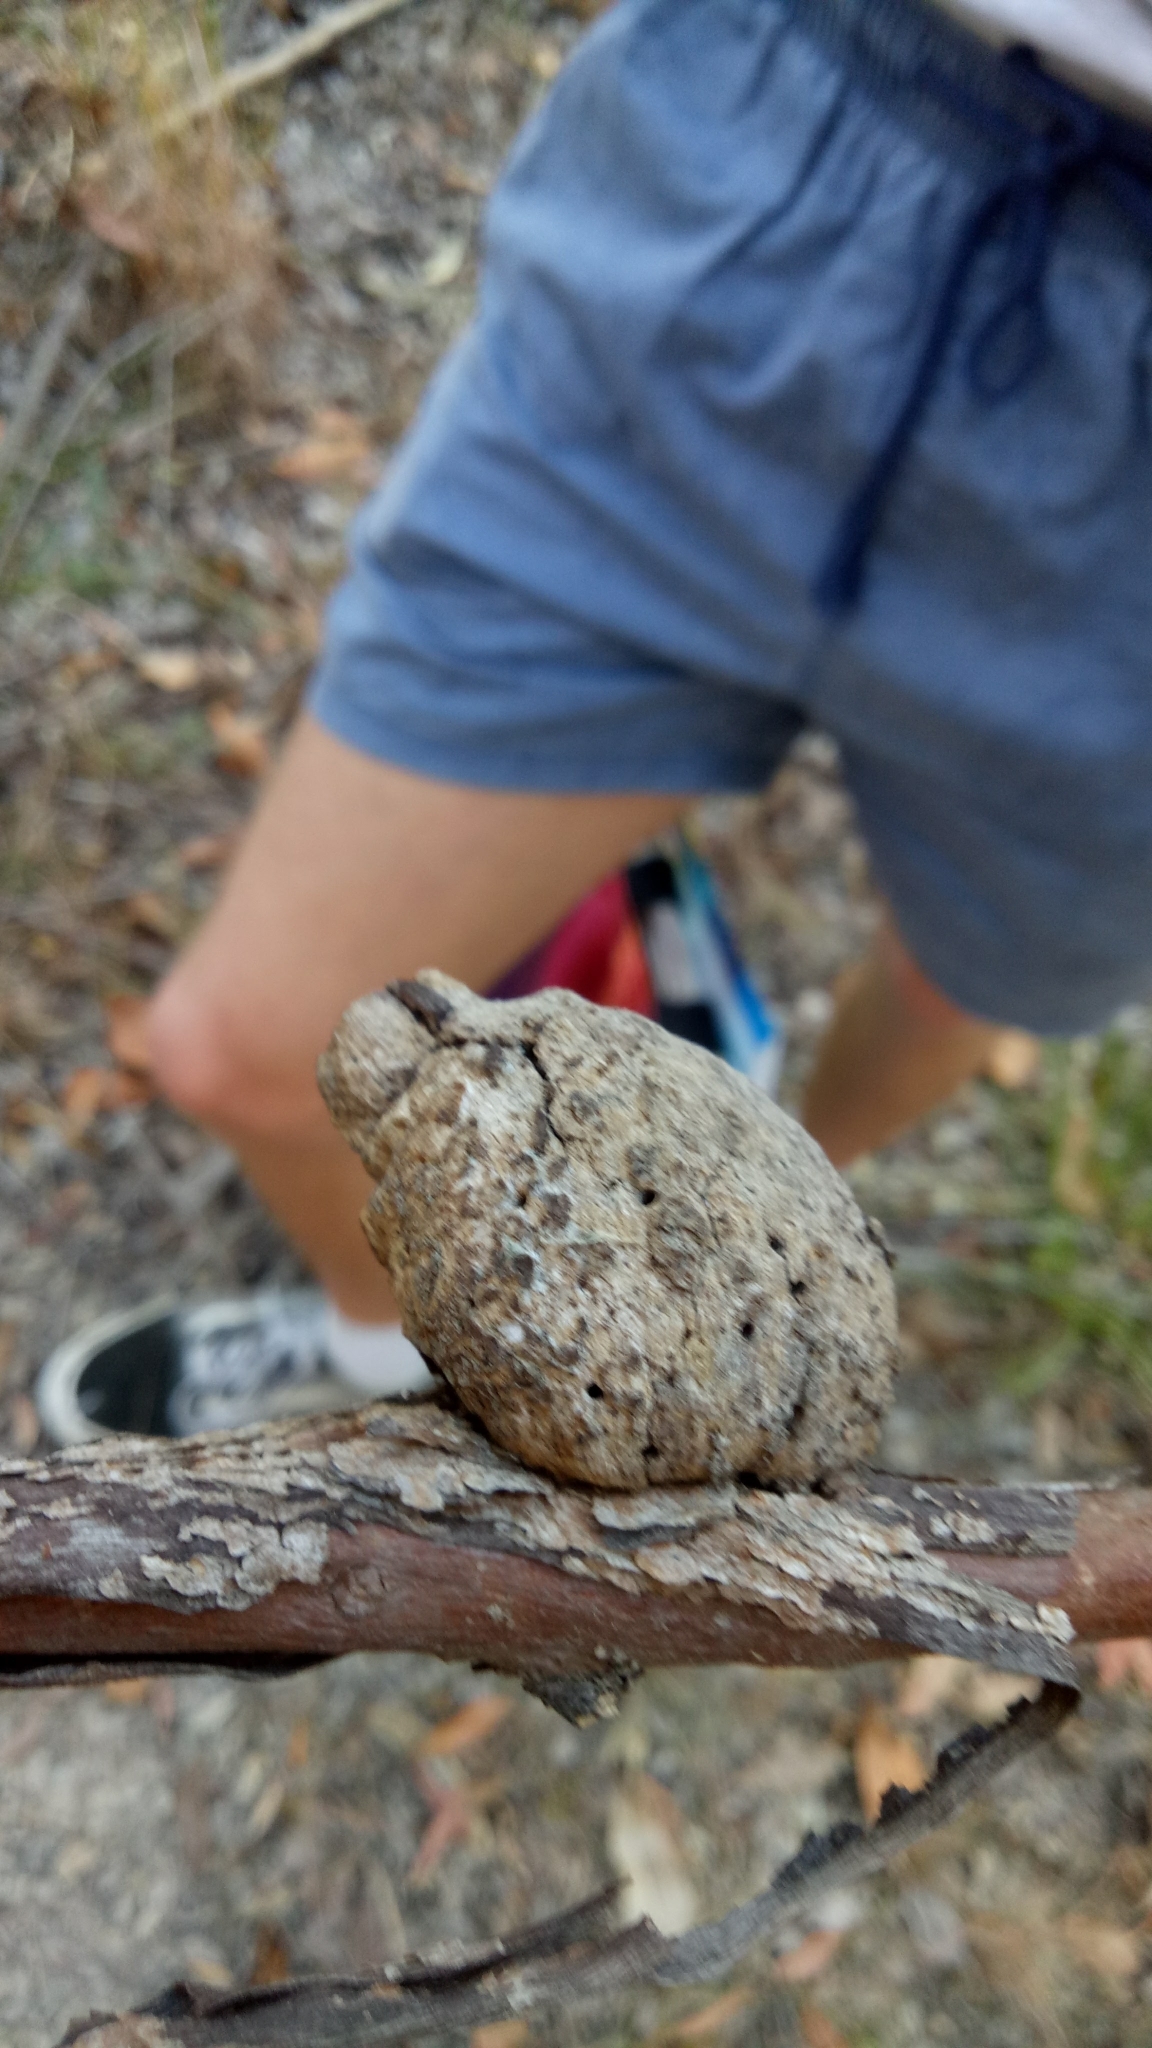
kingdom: Animalia
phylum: Arthropoda
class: Insecta
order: Hemiptera
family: Eriococcidae
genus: Apiomorpha
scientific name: Apiomorpha variabilis
